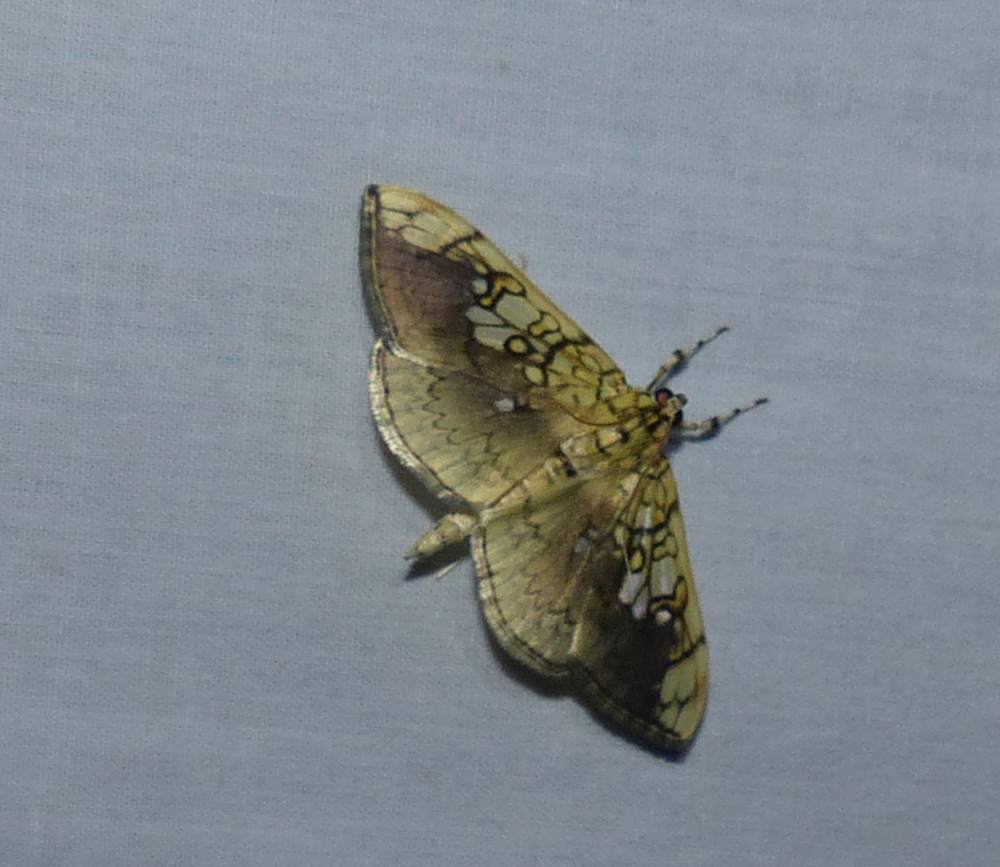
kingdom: Animalia
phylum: Arthropoda
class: Insecta
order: Lepidoptera
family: Crambidae
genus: Pantographa
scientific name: Pantographa limata
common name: Basswood leafroller moth
